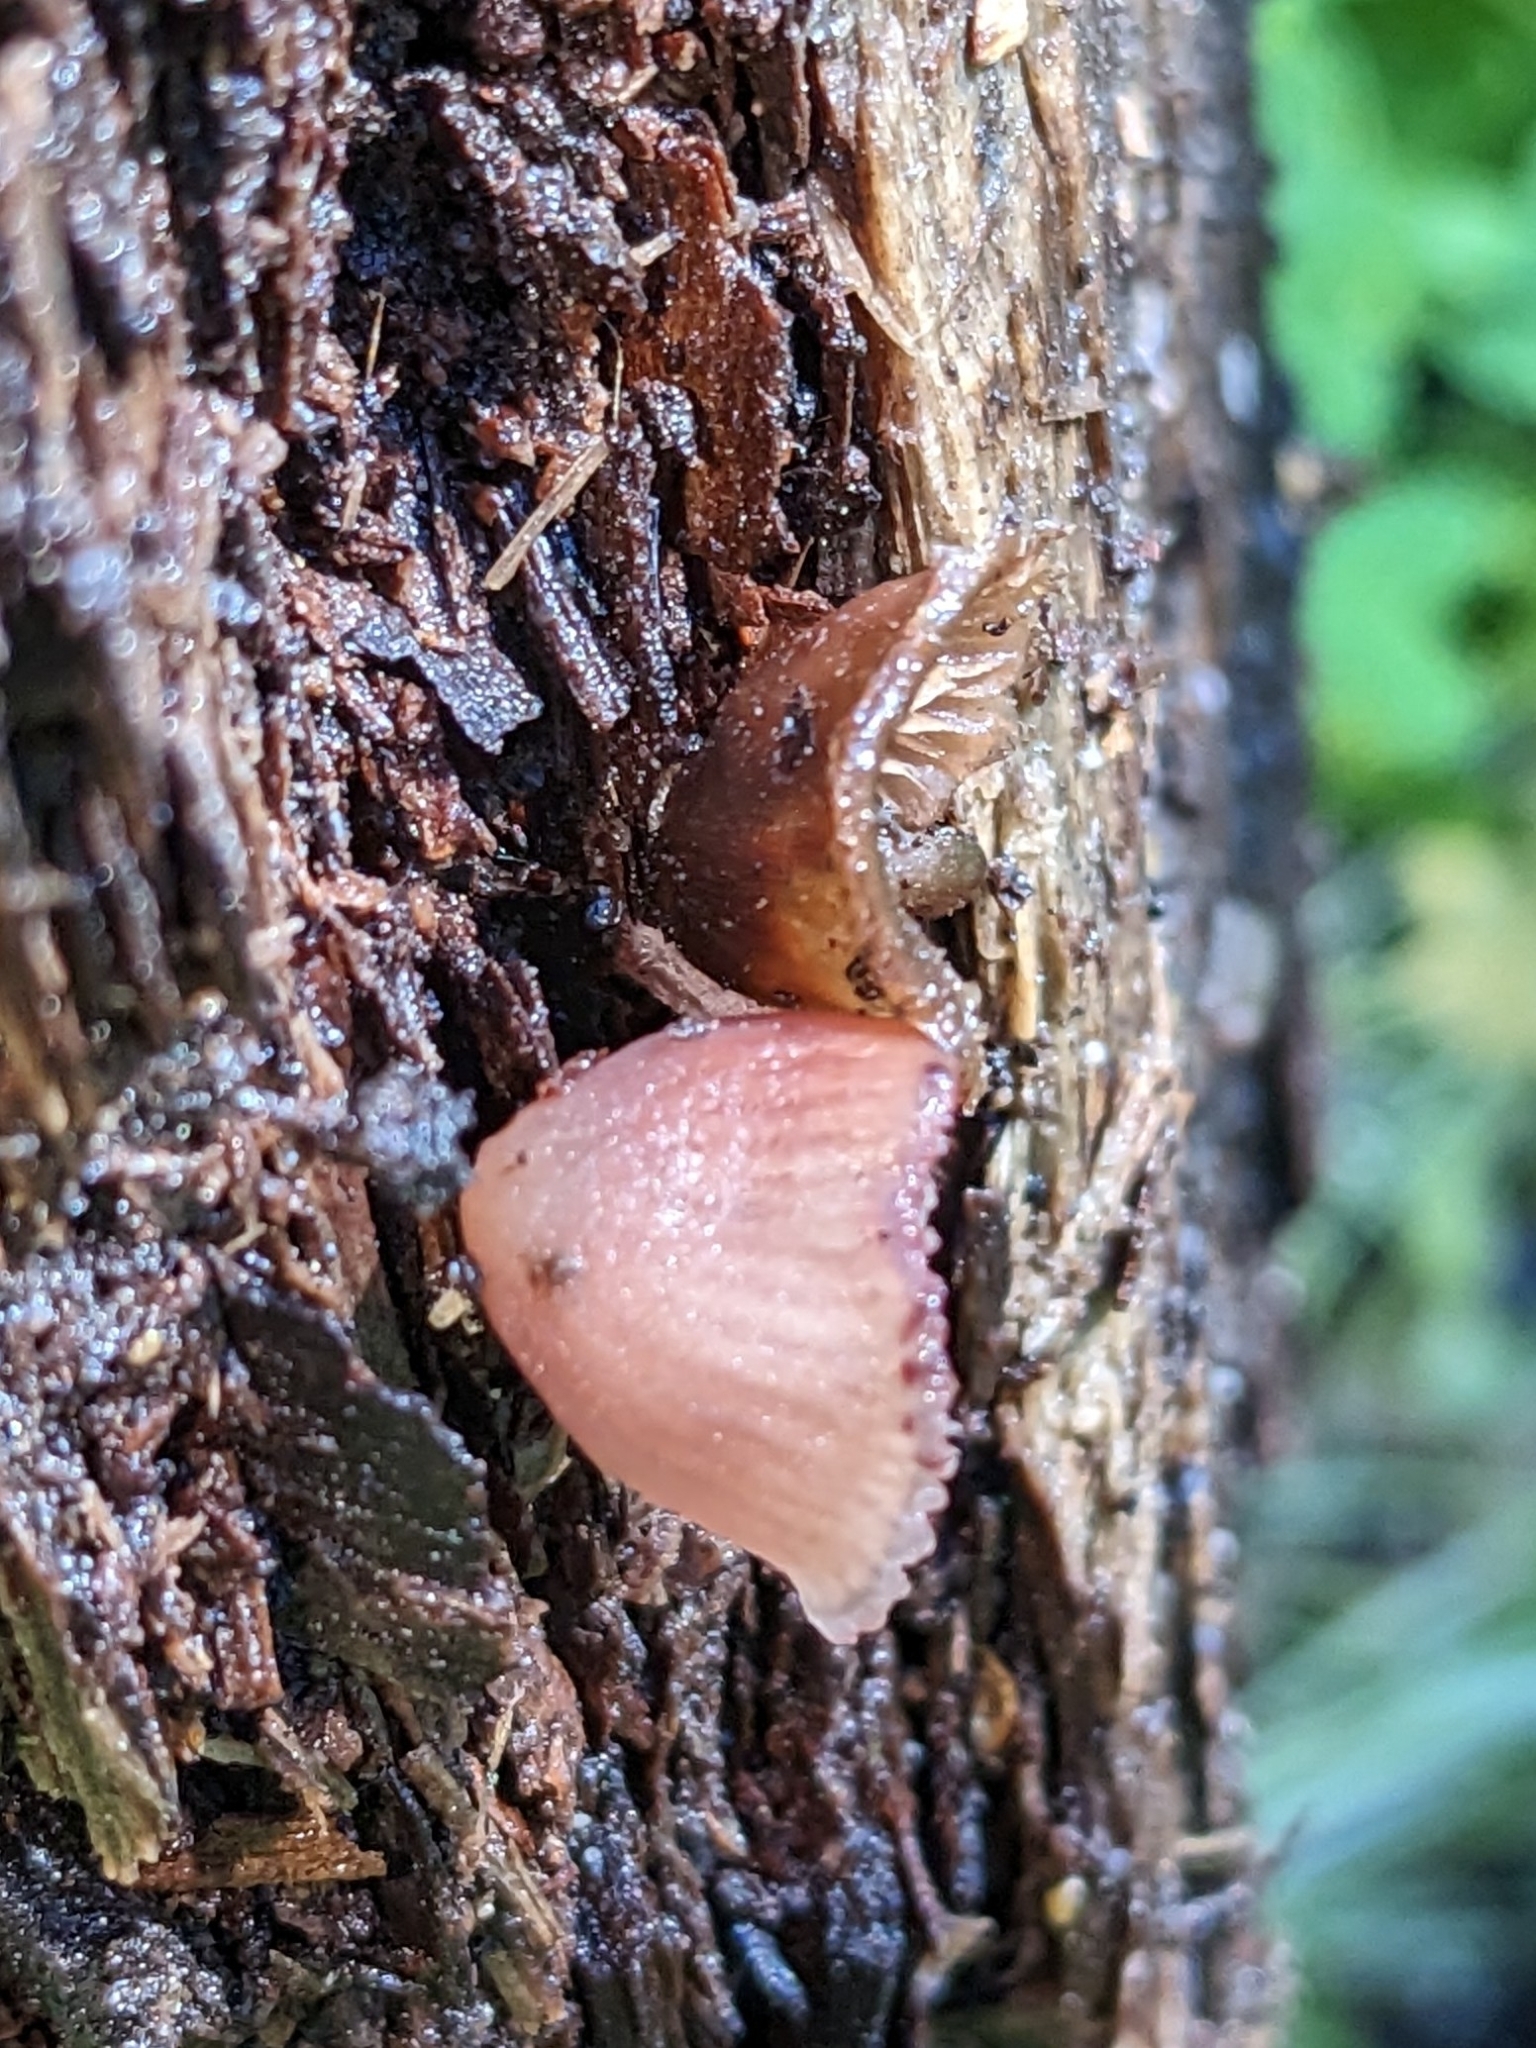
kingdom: Fungi
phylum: Basidiomycota
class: Agaricomycetes
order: Agaricales
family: Mycenaceae
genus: Mycena
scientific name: Mycena haematopus
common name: Burgundydrop bonnet
